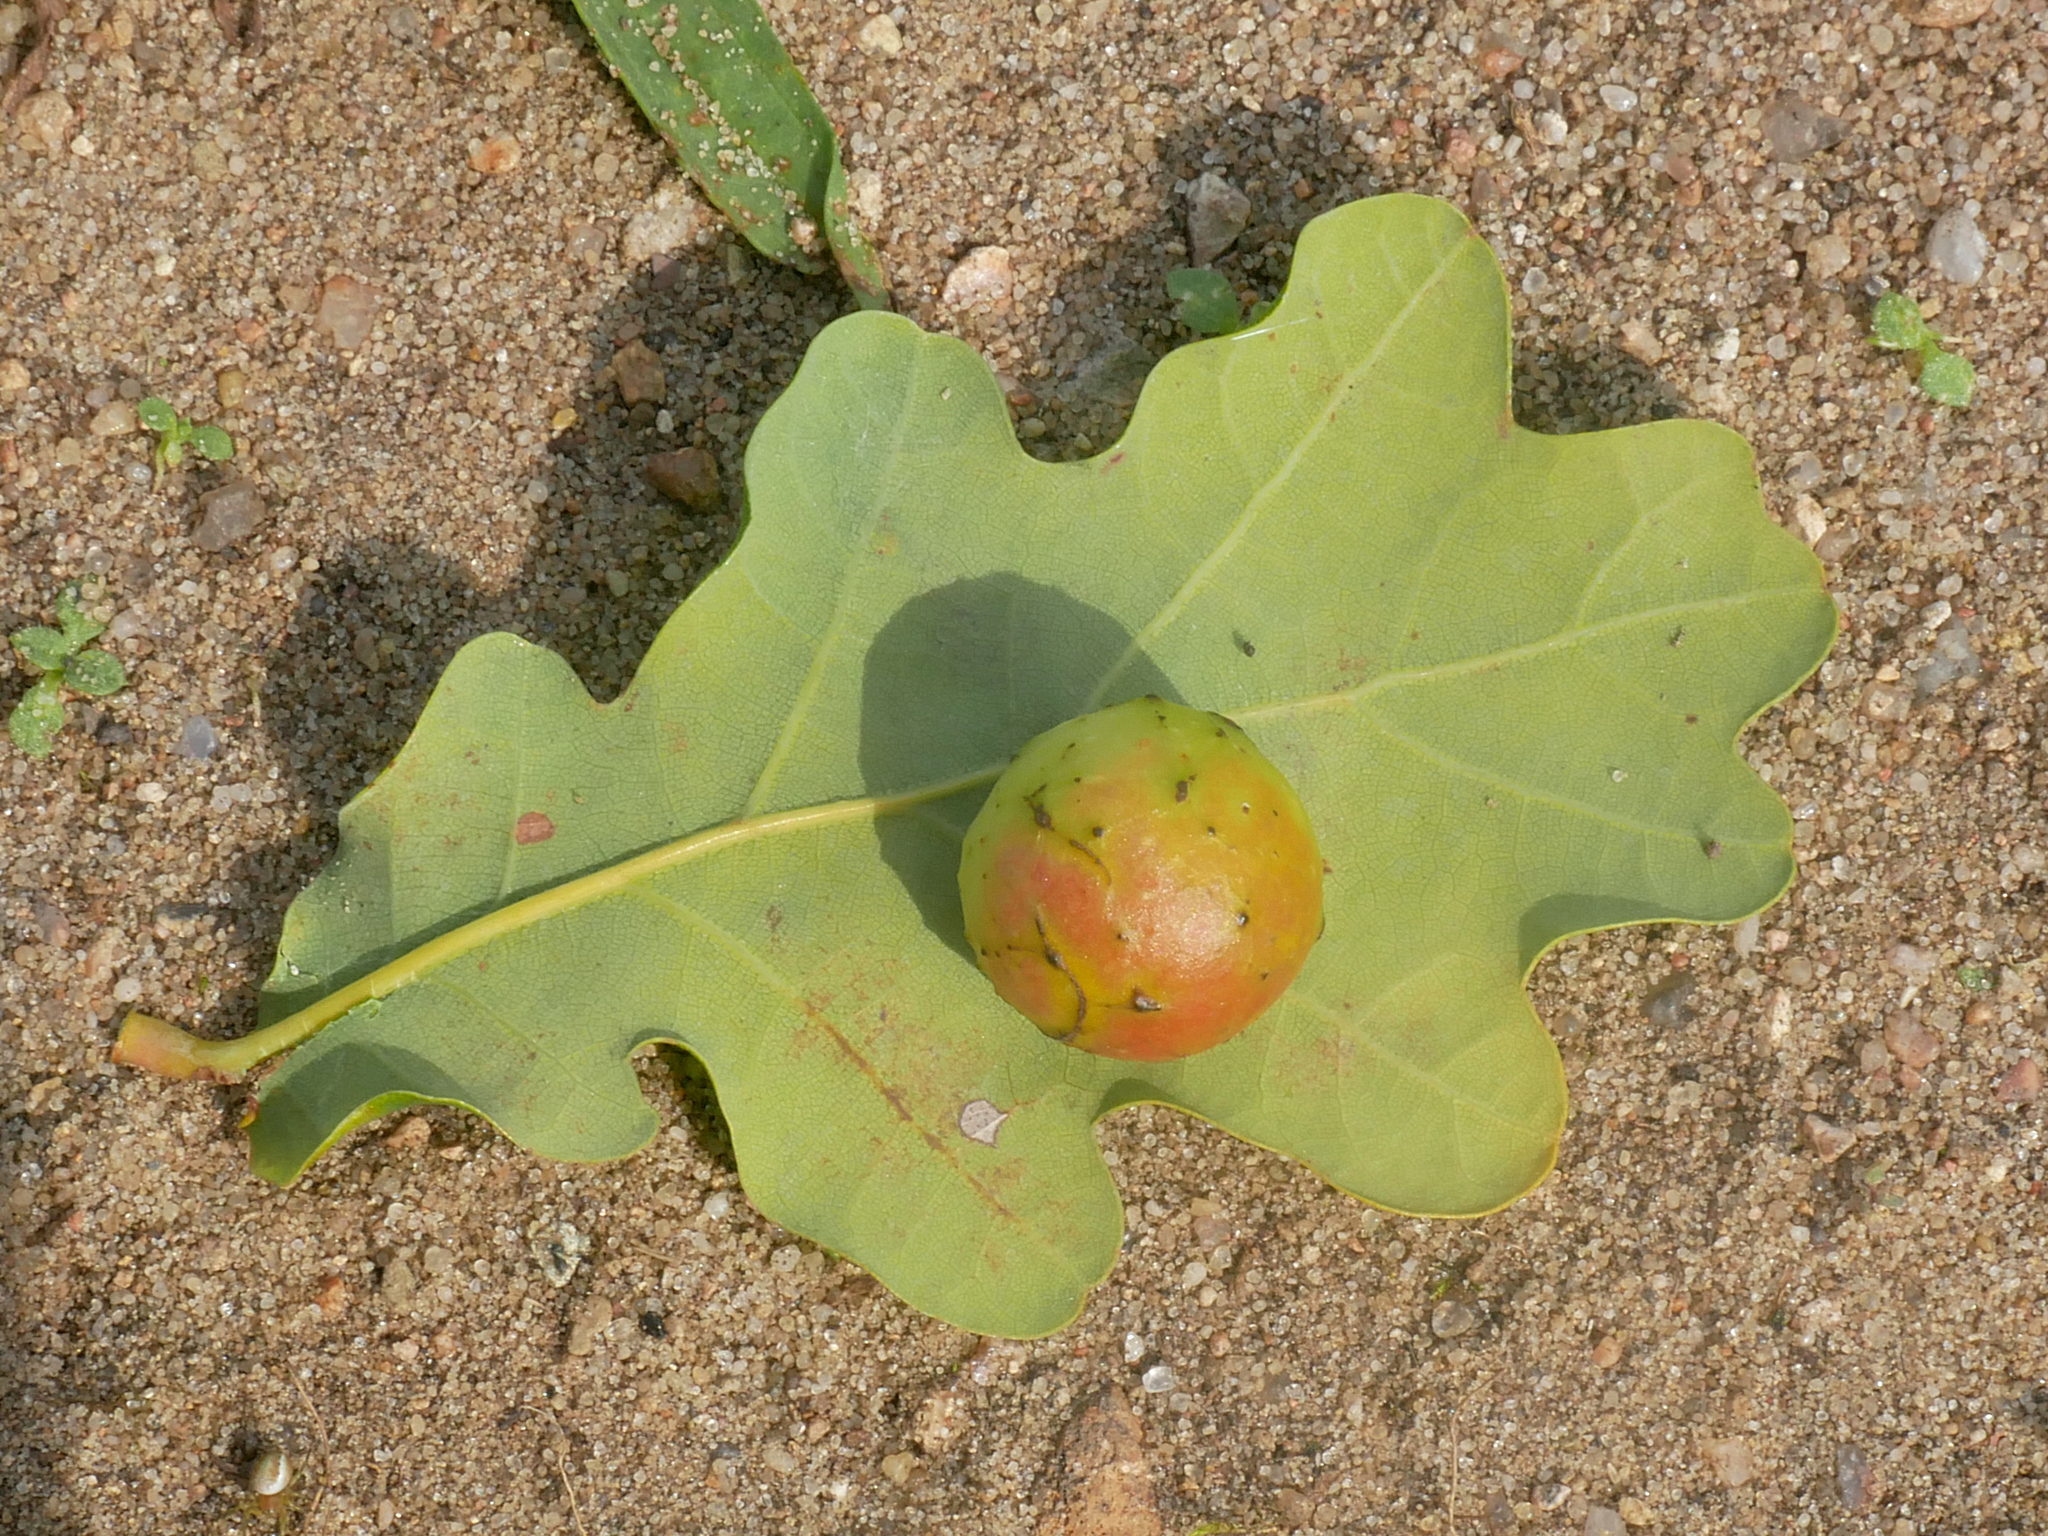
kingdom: Animalia
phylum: Arthropoda
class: Insecta
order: Hymenoptera
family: Cynipidae
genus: Cynips
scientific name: Cynips quercusfolii
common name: Cherry gall
